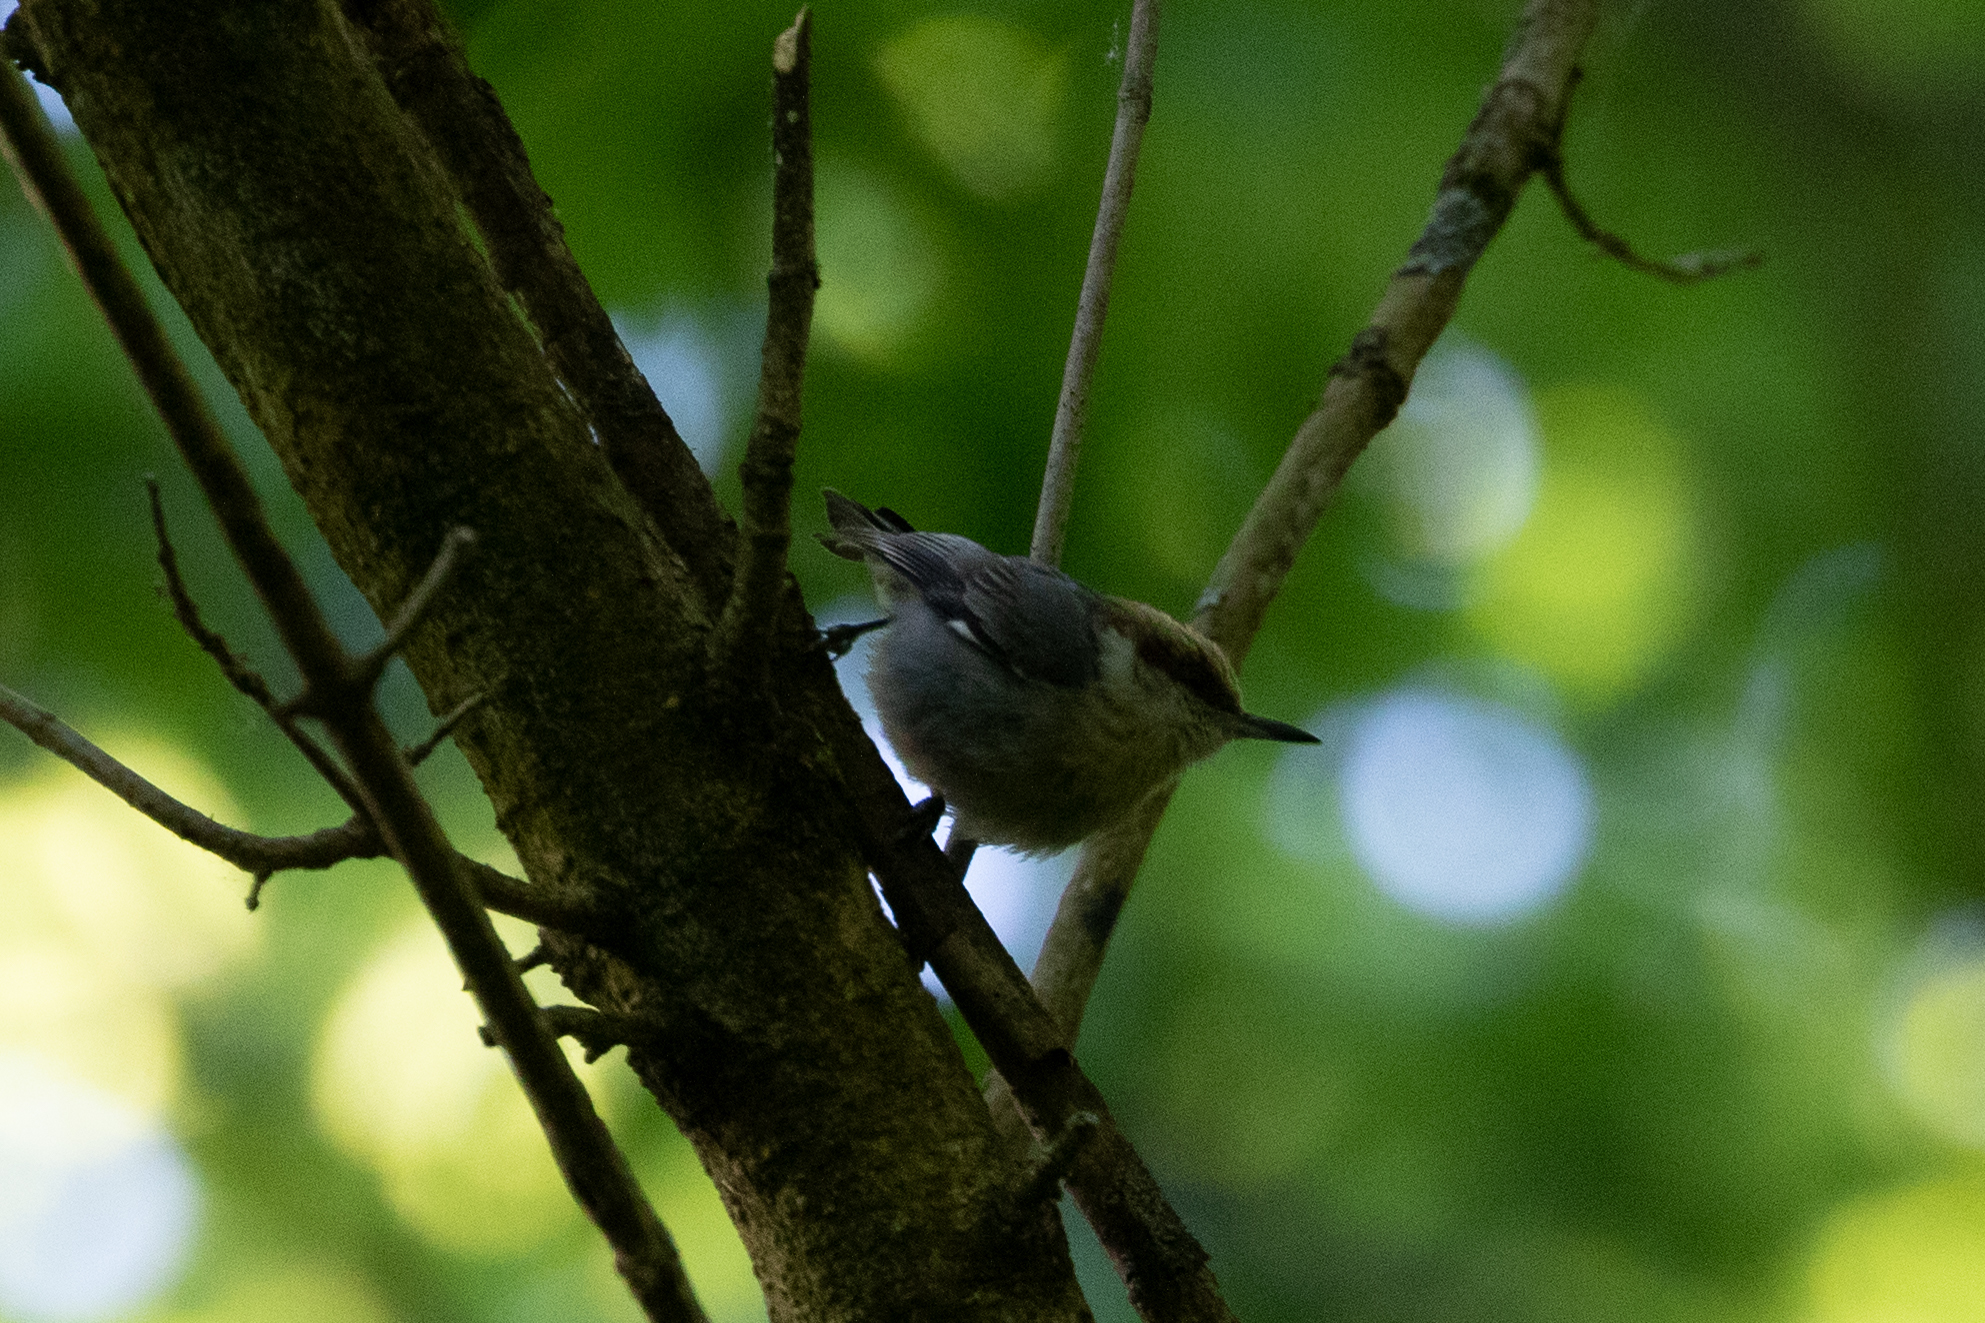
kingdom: Animalia
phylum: Chordata
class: Aves
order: Passeriformes
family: Sittidae
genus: Sitta
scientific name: Sitta pusilla
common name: Brown-headed nuthatch
